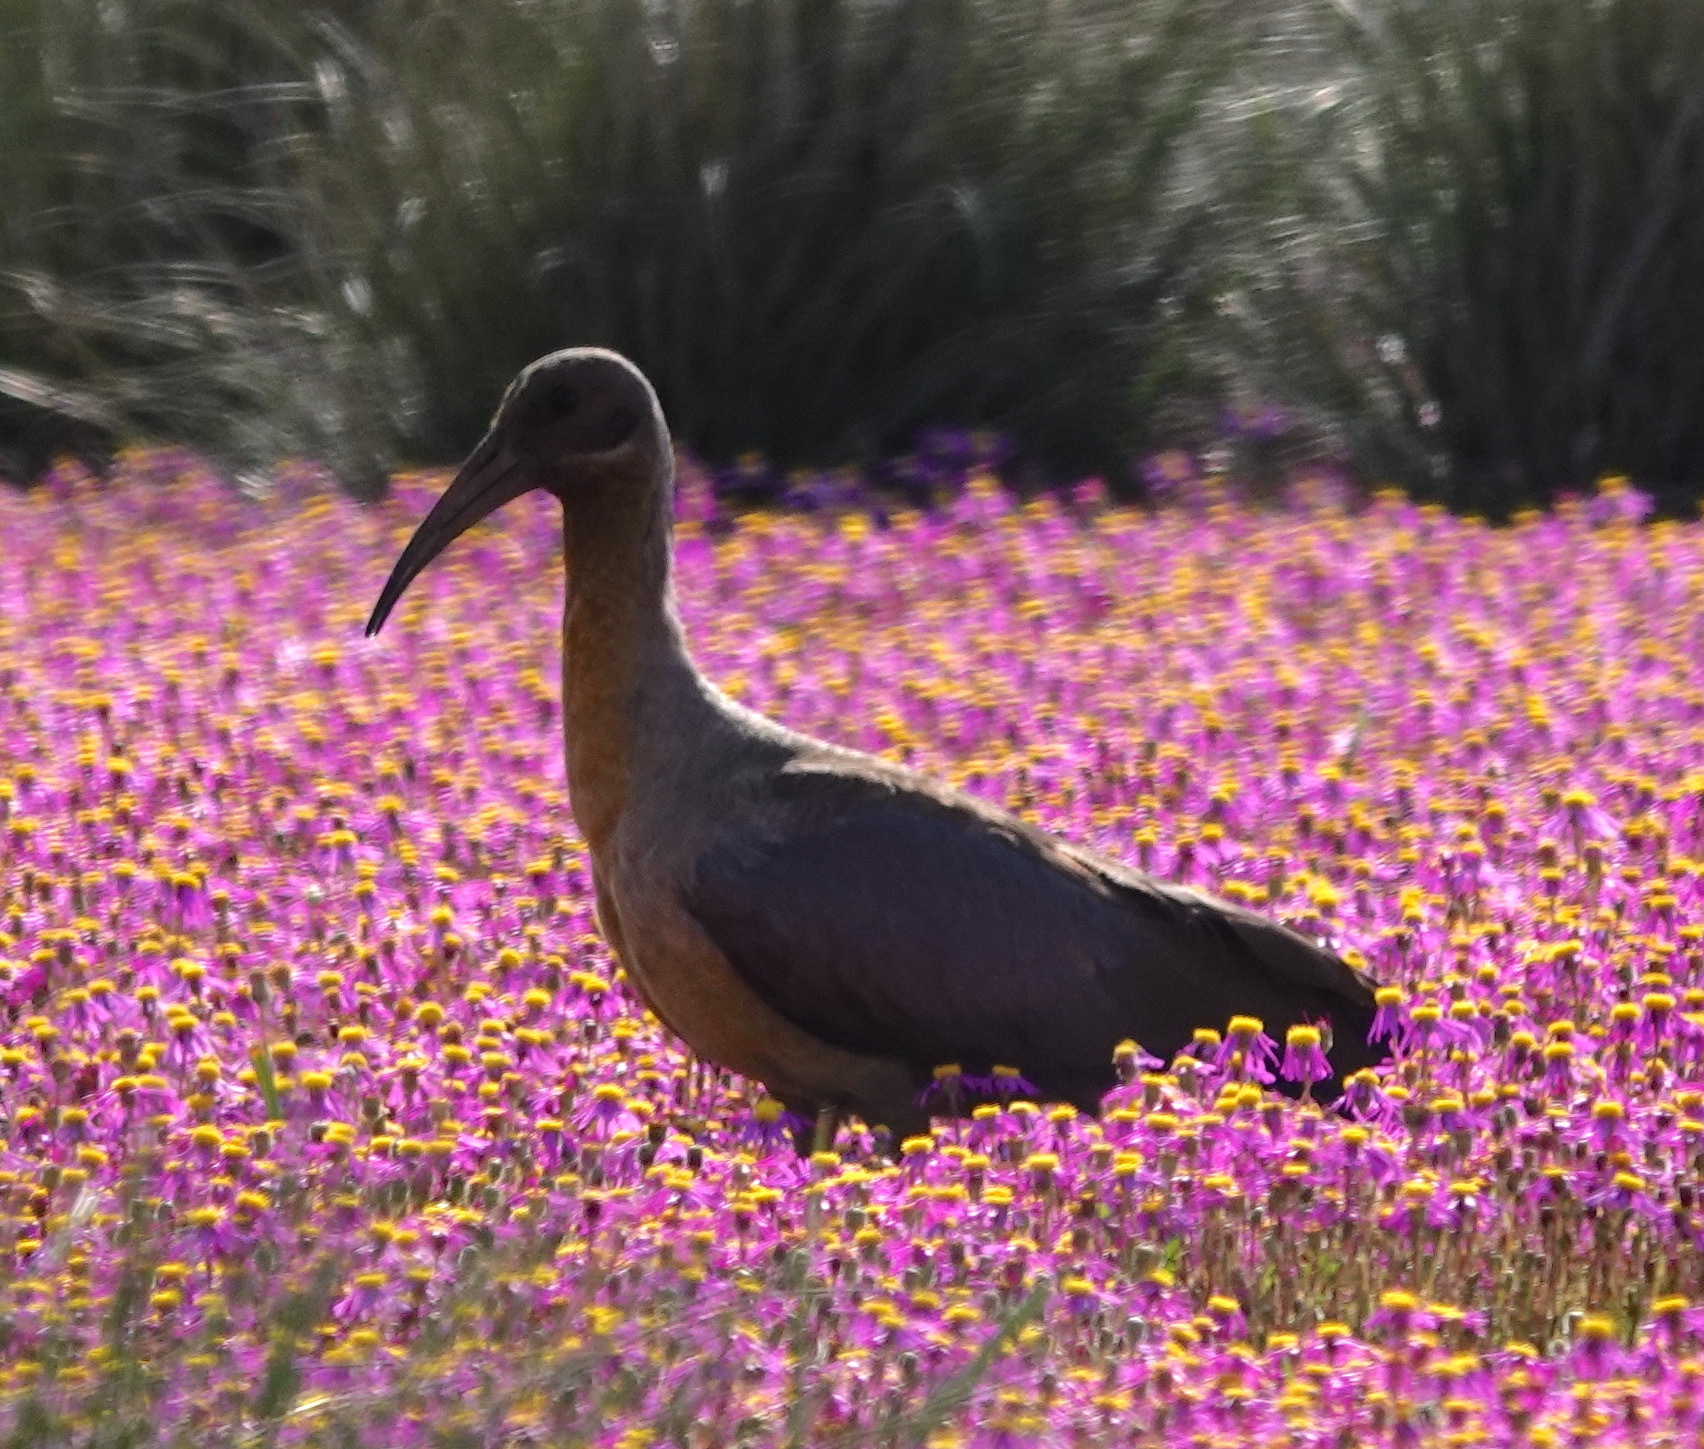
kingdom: Animalia
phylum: Chordata
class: Aves
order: Pelecaniformes
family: Threskiornithidae
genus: Bostrychia
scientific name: Bostrychia hagedash
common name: Hadada ibis
